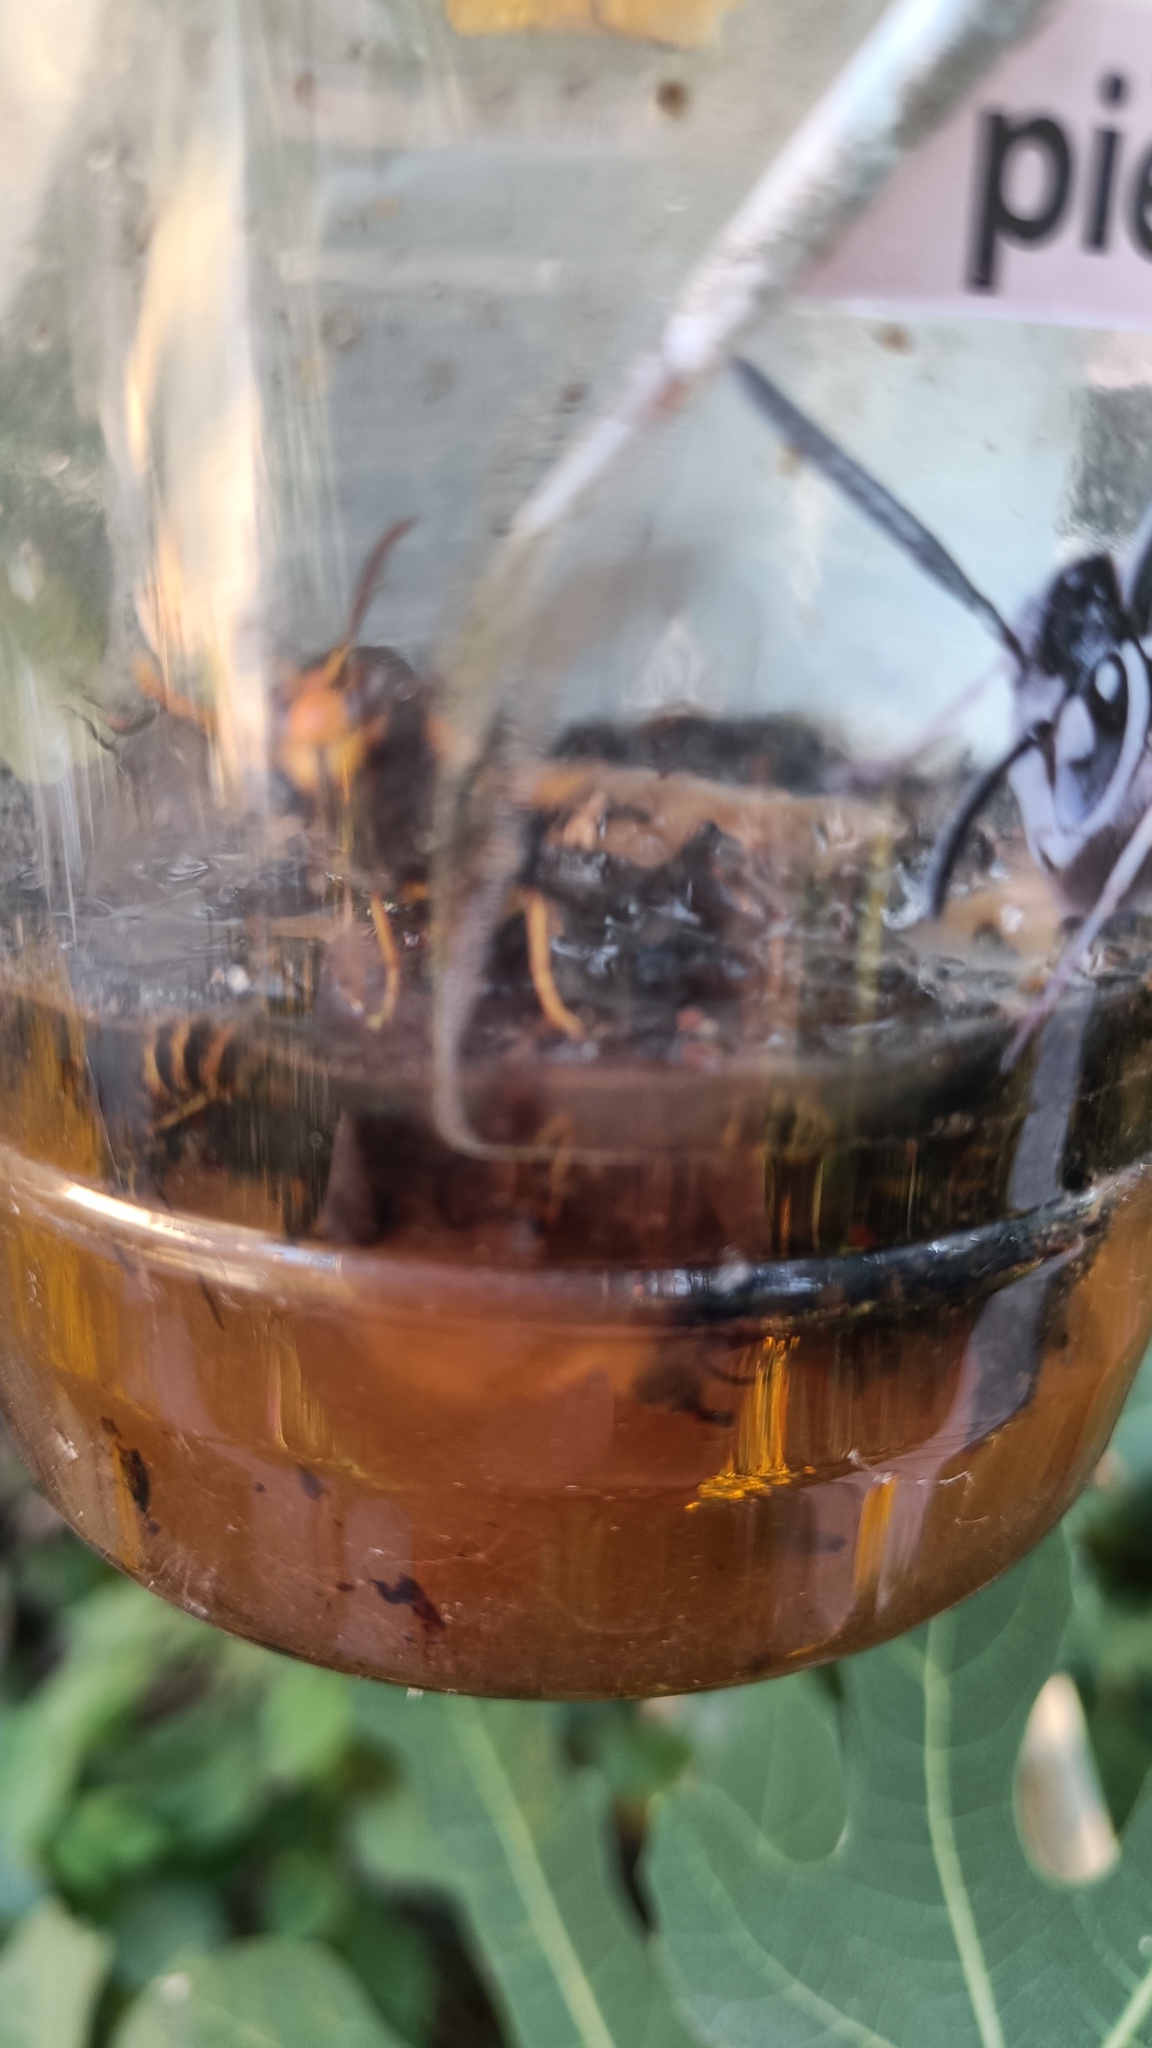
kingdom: Animalia
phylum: Arthropoda
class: Insecta
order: Hymenoptera
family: Vespidae
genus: Vespa
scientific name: Vespa velutina
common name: Asian hornet
